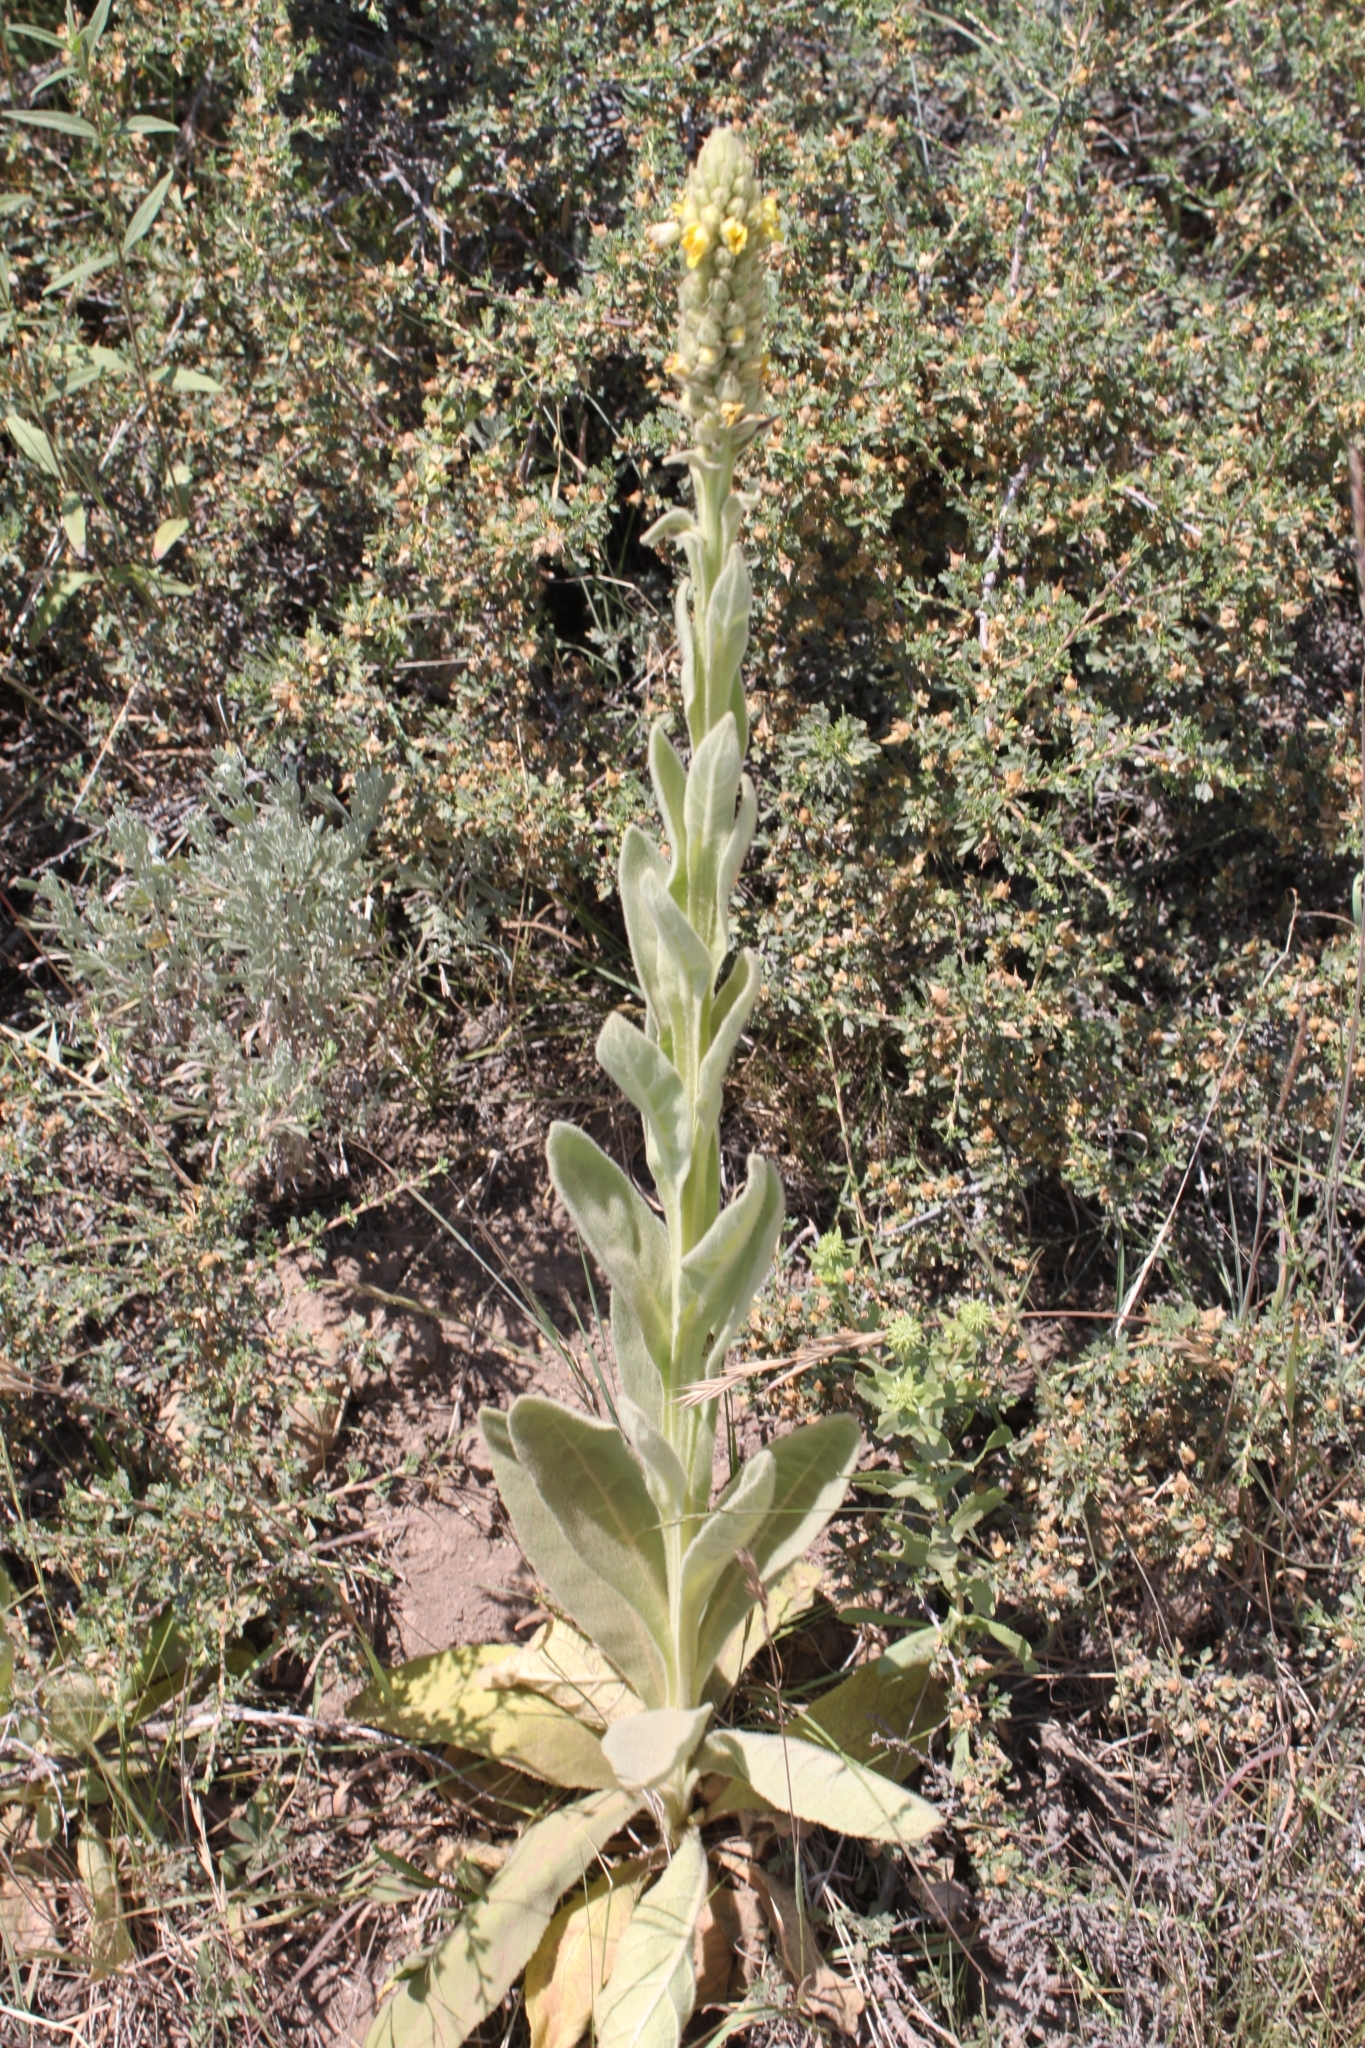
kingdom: Plantae
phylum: Tracheophyta
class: Magnoliopsida
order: Lamiales
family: Scrophulariaceae
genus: Verbascum
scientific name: Verbascum thapsus
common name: Common mullein
